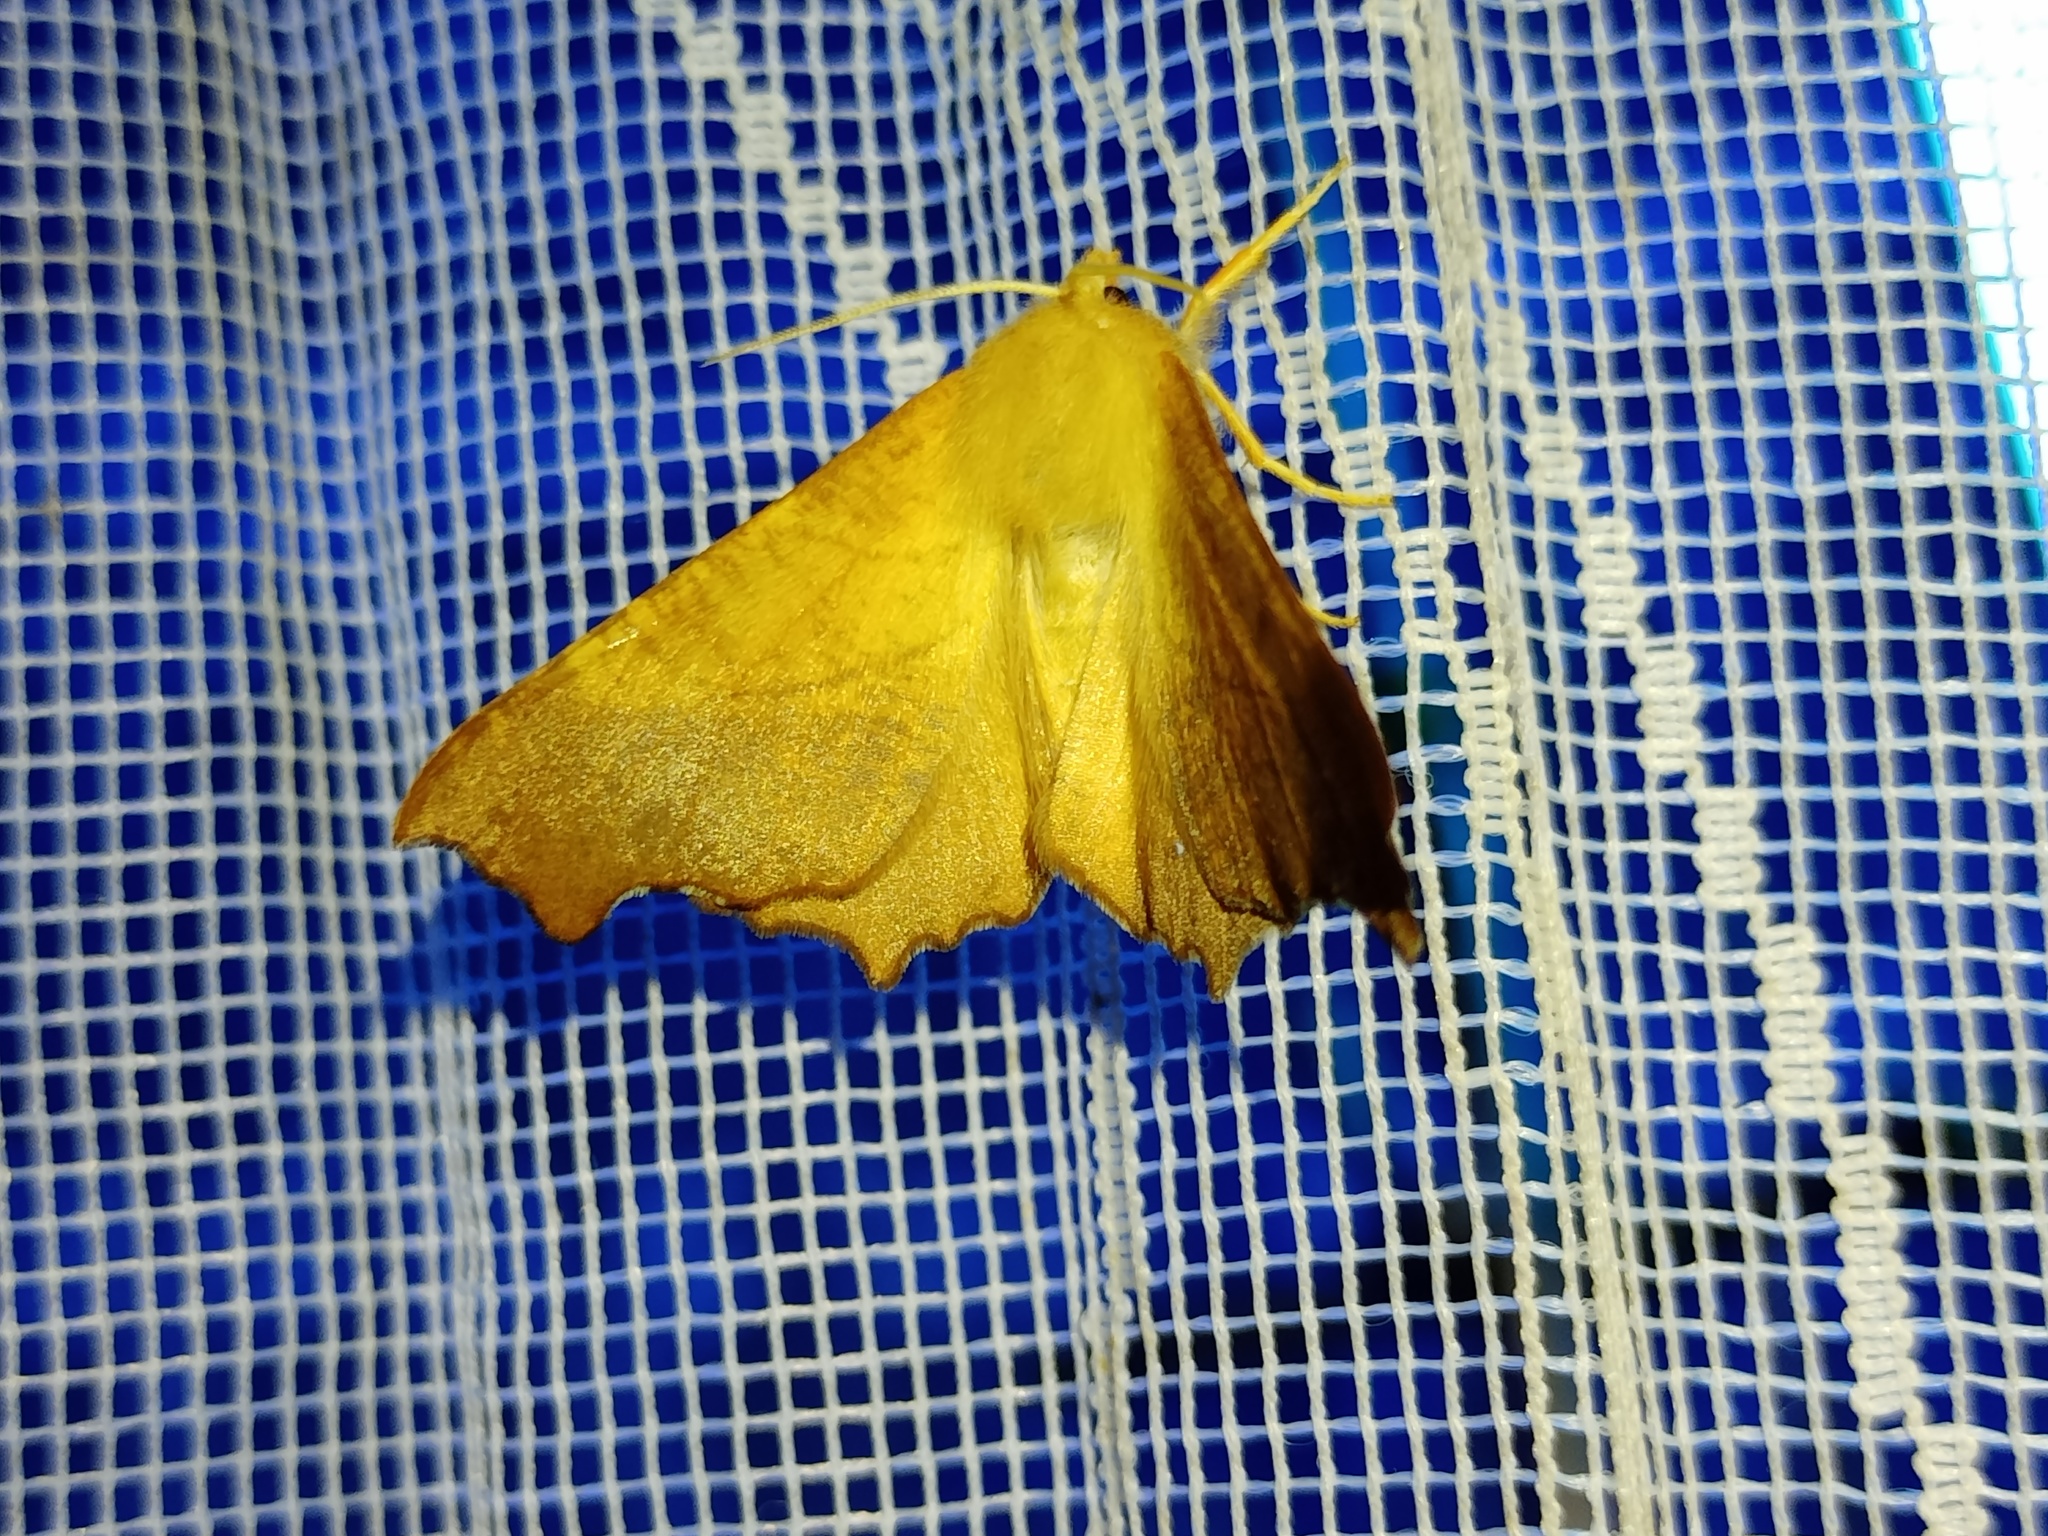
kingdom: Animalia
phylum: Arthropoda
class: Insecta
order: Lepidoptera
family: Geometridae
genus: Ennomos
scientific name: Ennomos fuscantaria
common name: Dusky thorn
